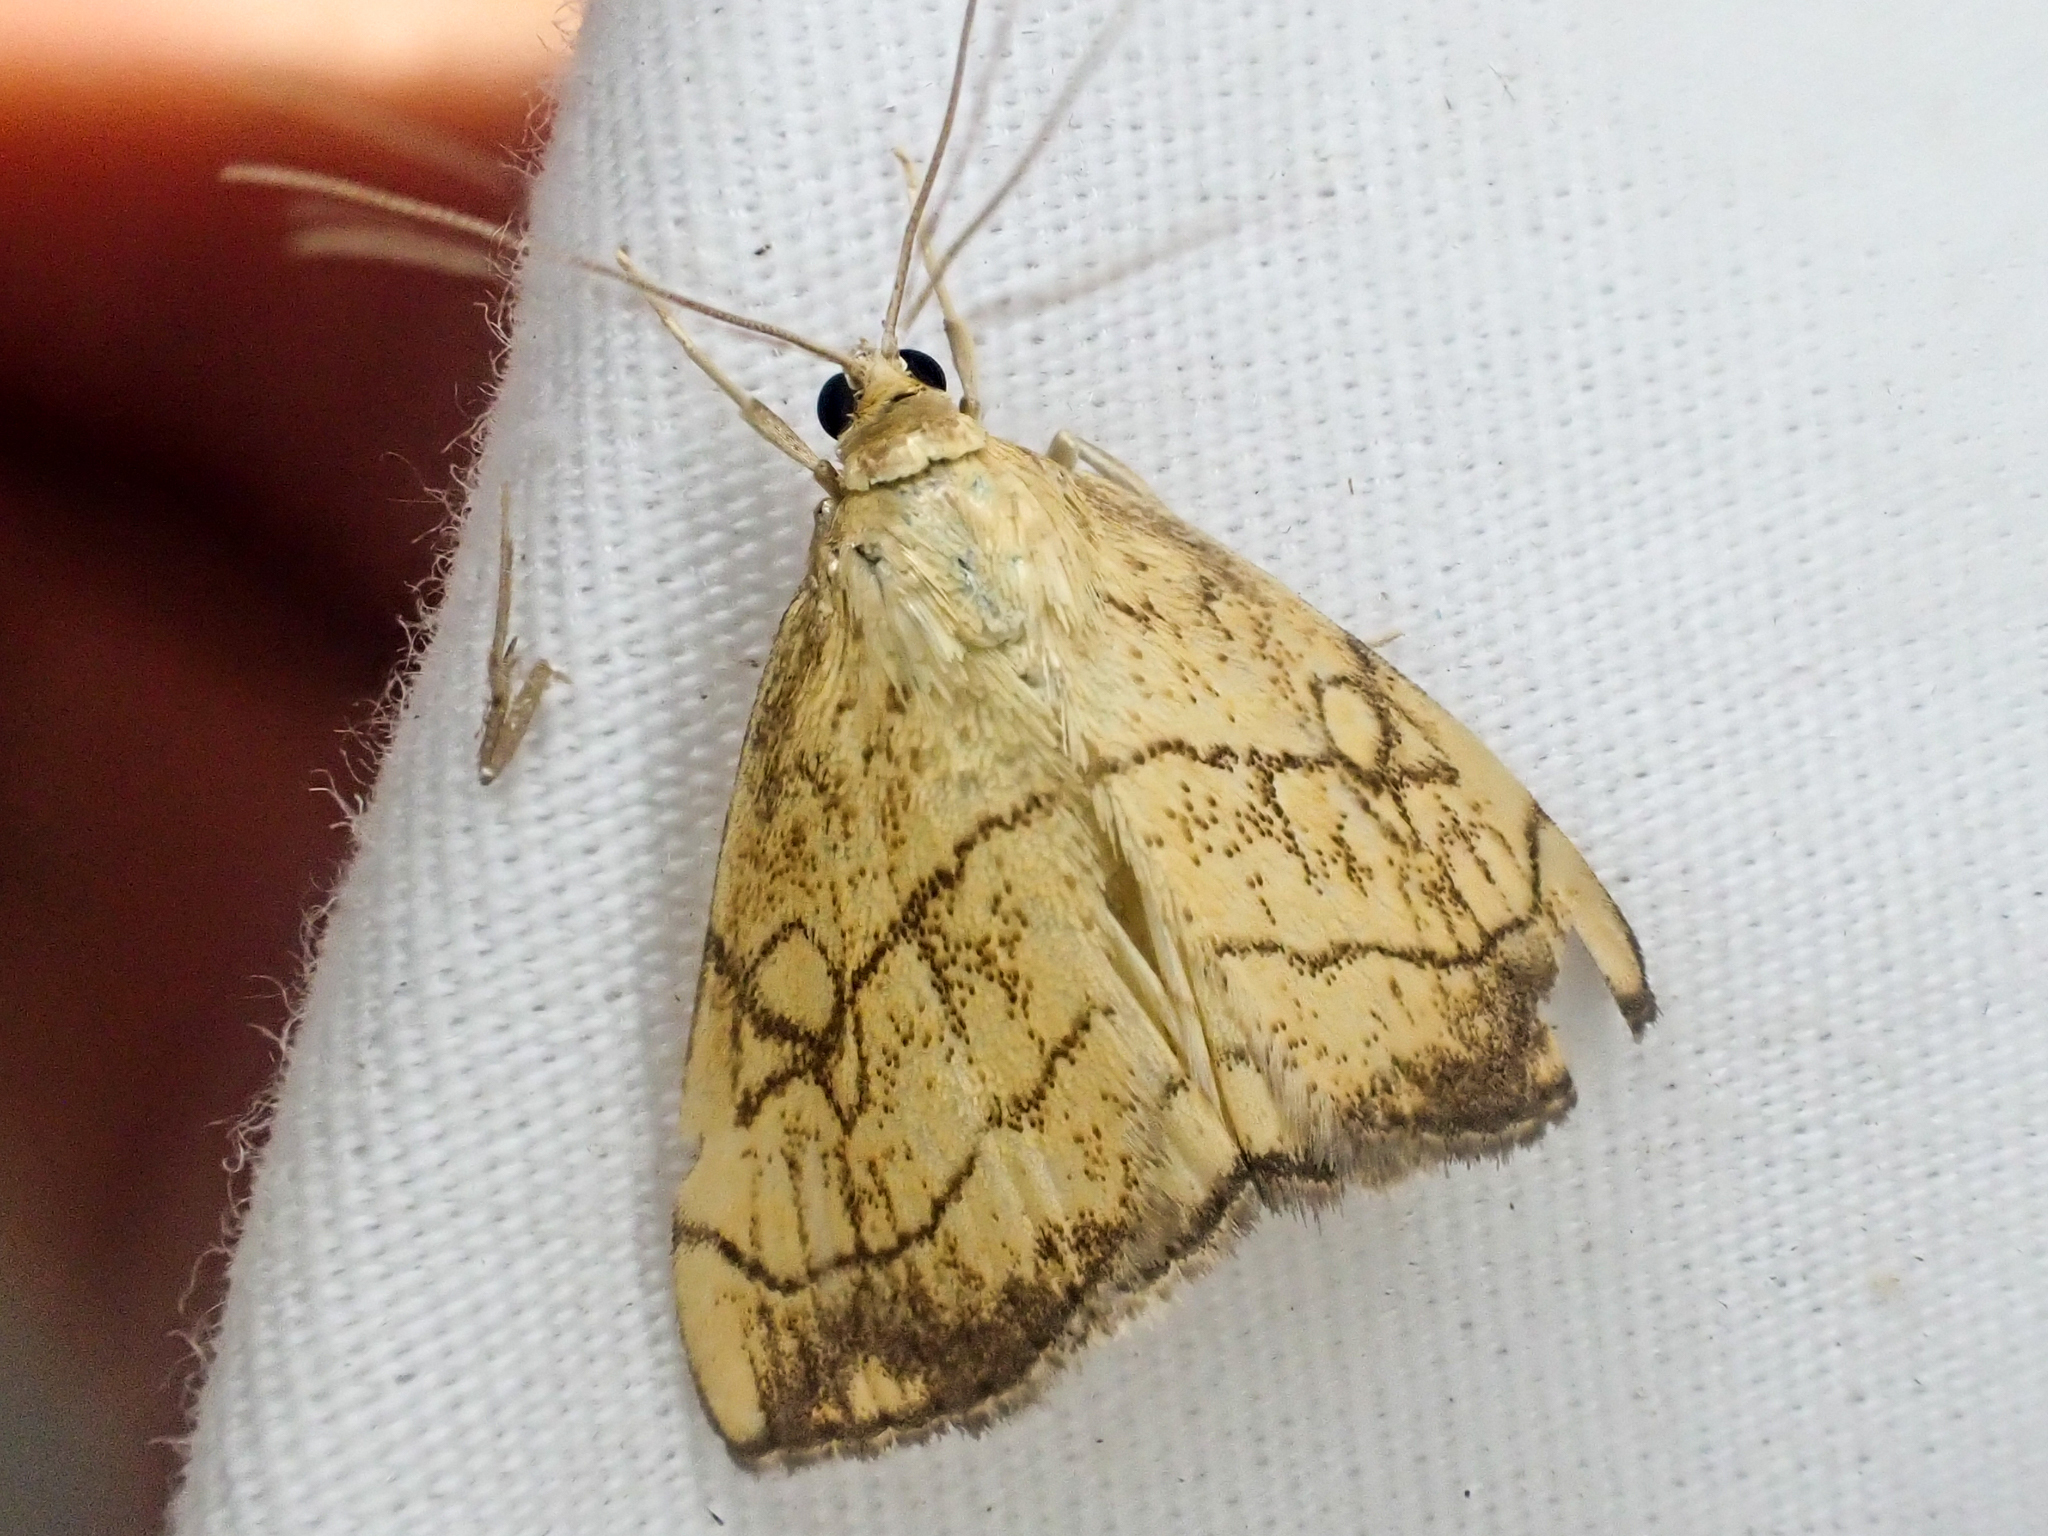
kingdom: Animalia
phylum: Arthropoda
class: Insecta
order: Lepidoptera
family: Crambidae
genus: Evergestis
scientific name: Evergestis pallidata
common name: Chequered pearl
